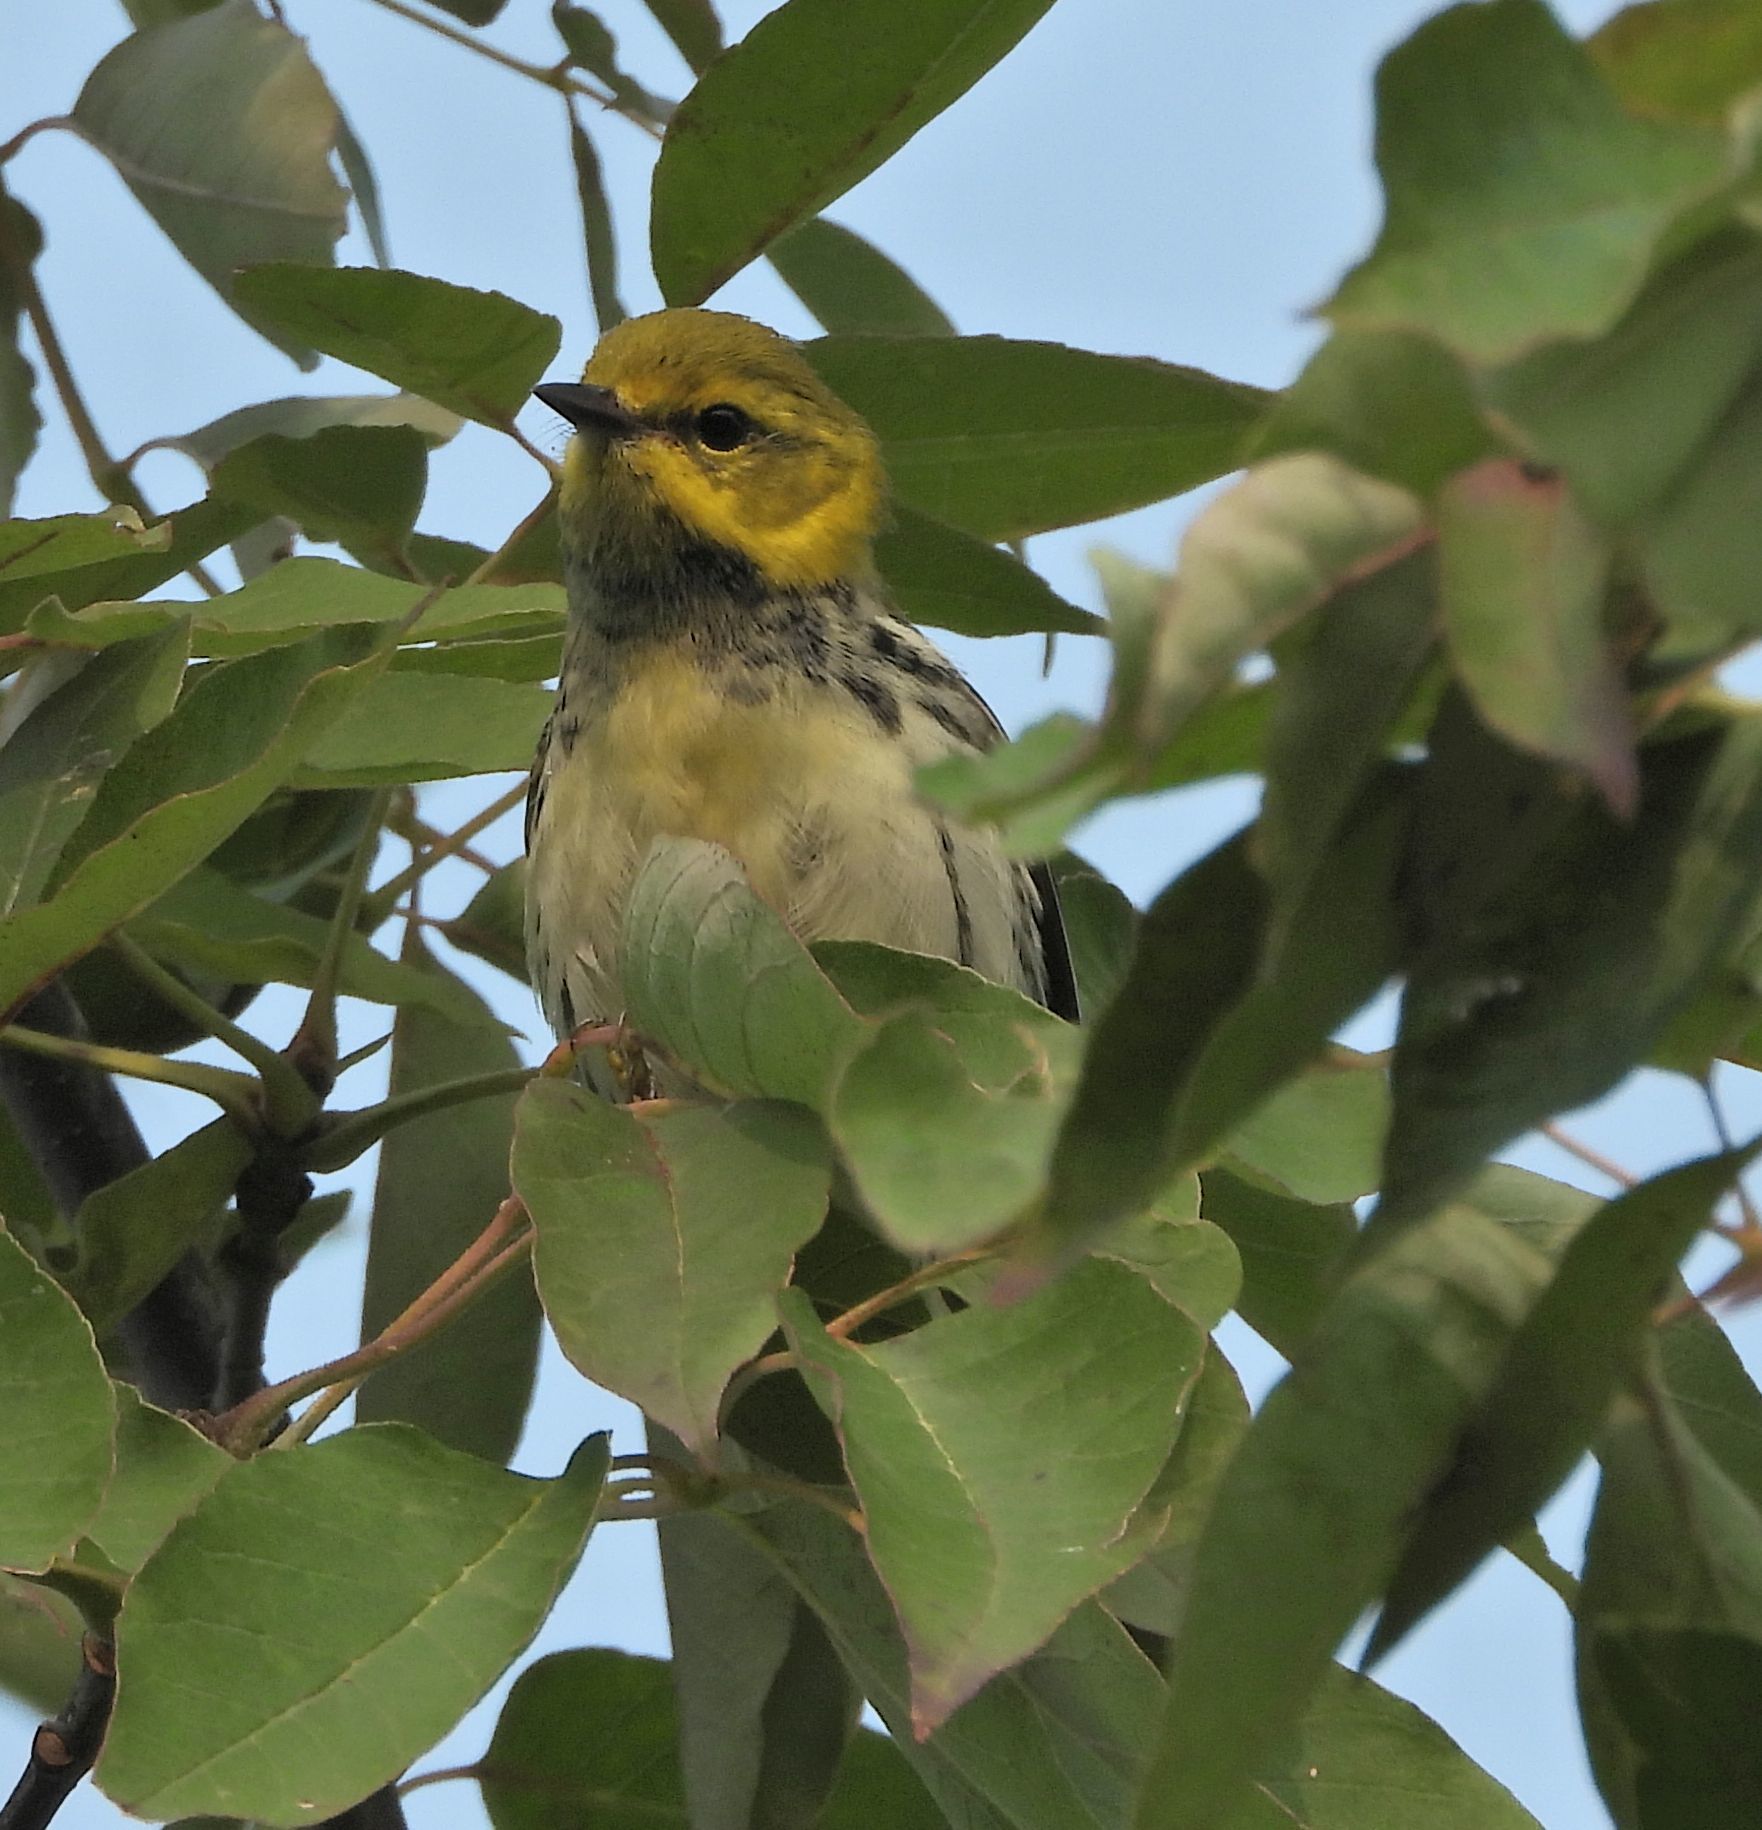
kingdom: Animalia
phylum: Chordata
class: Aves
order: Passeriformes
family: Parulidae
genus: Setophaga
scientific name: Setophaga virens
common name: Black-throated green warbler
